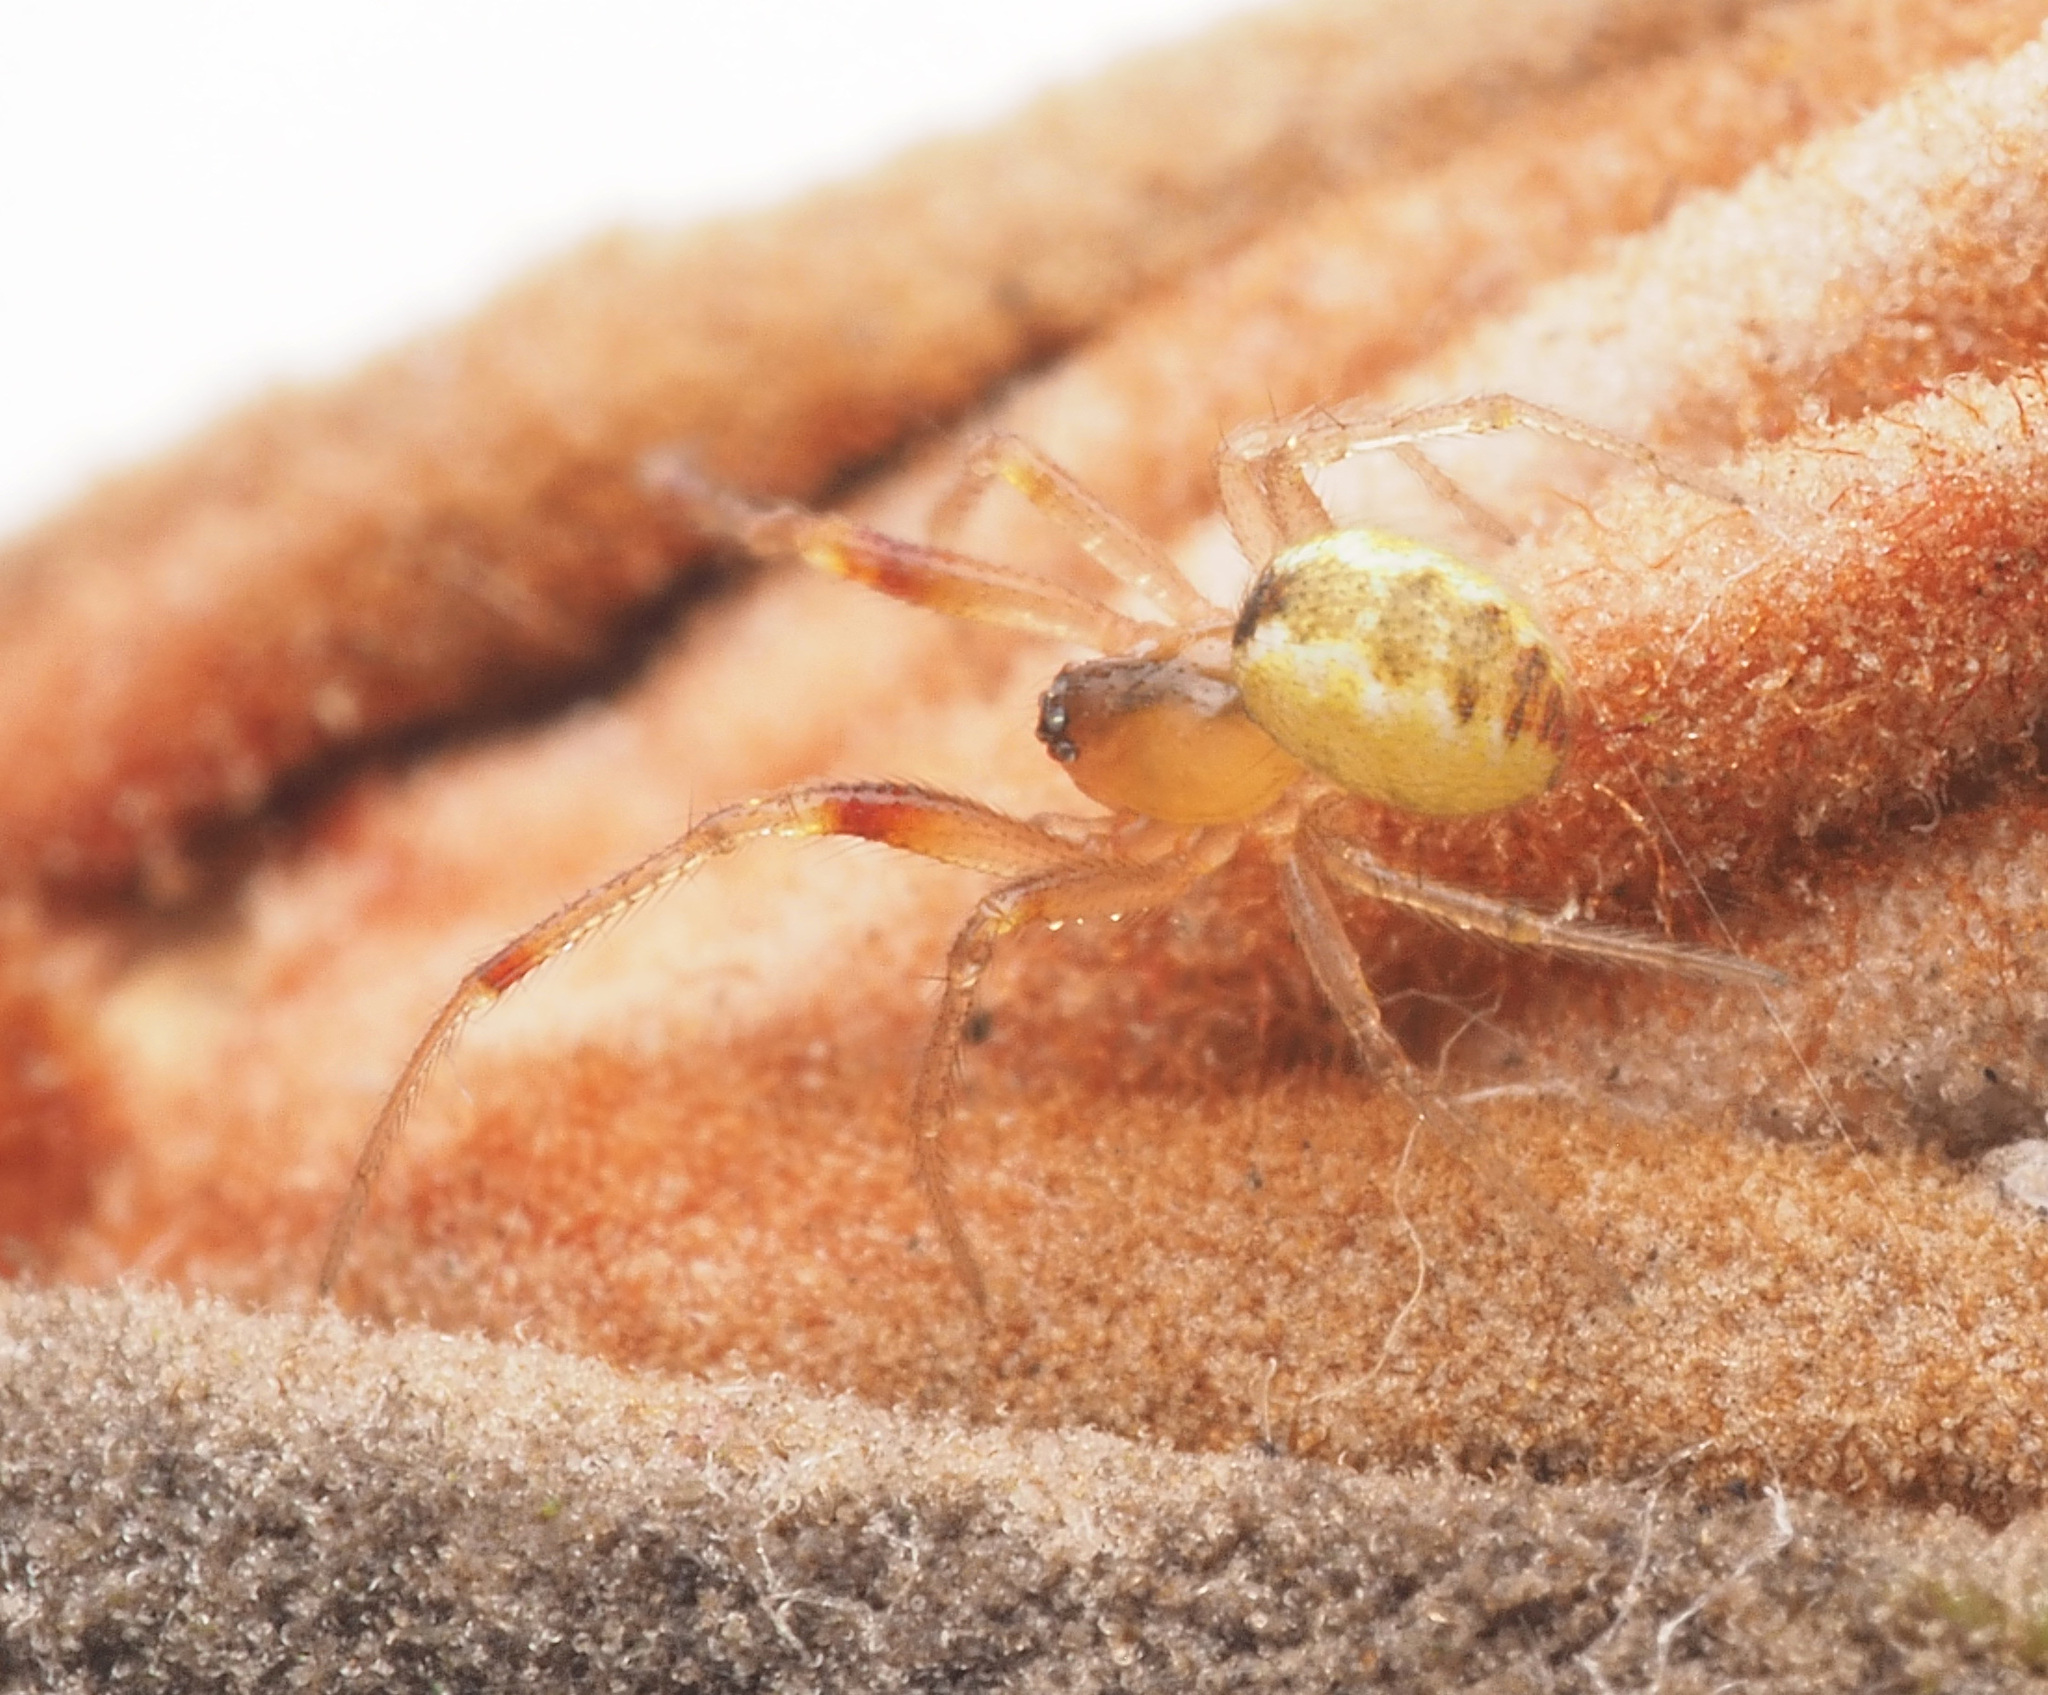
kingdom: Animalia
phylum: Arthropoda
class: Arachnida
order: Araneae
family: Theridiidae
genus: Anelosimus
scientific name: Anelosimus
